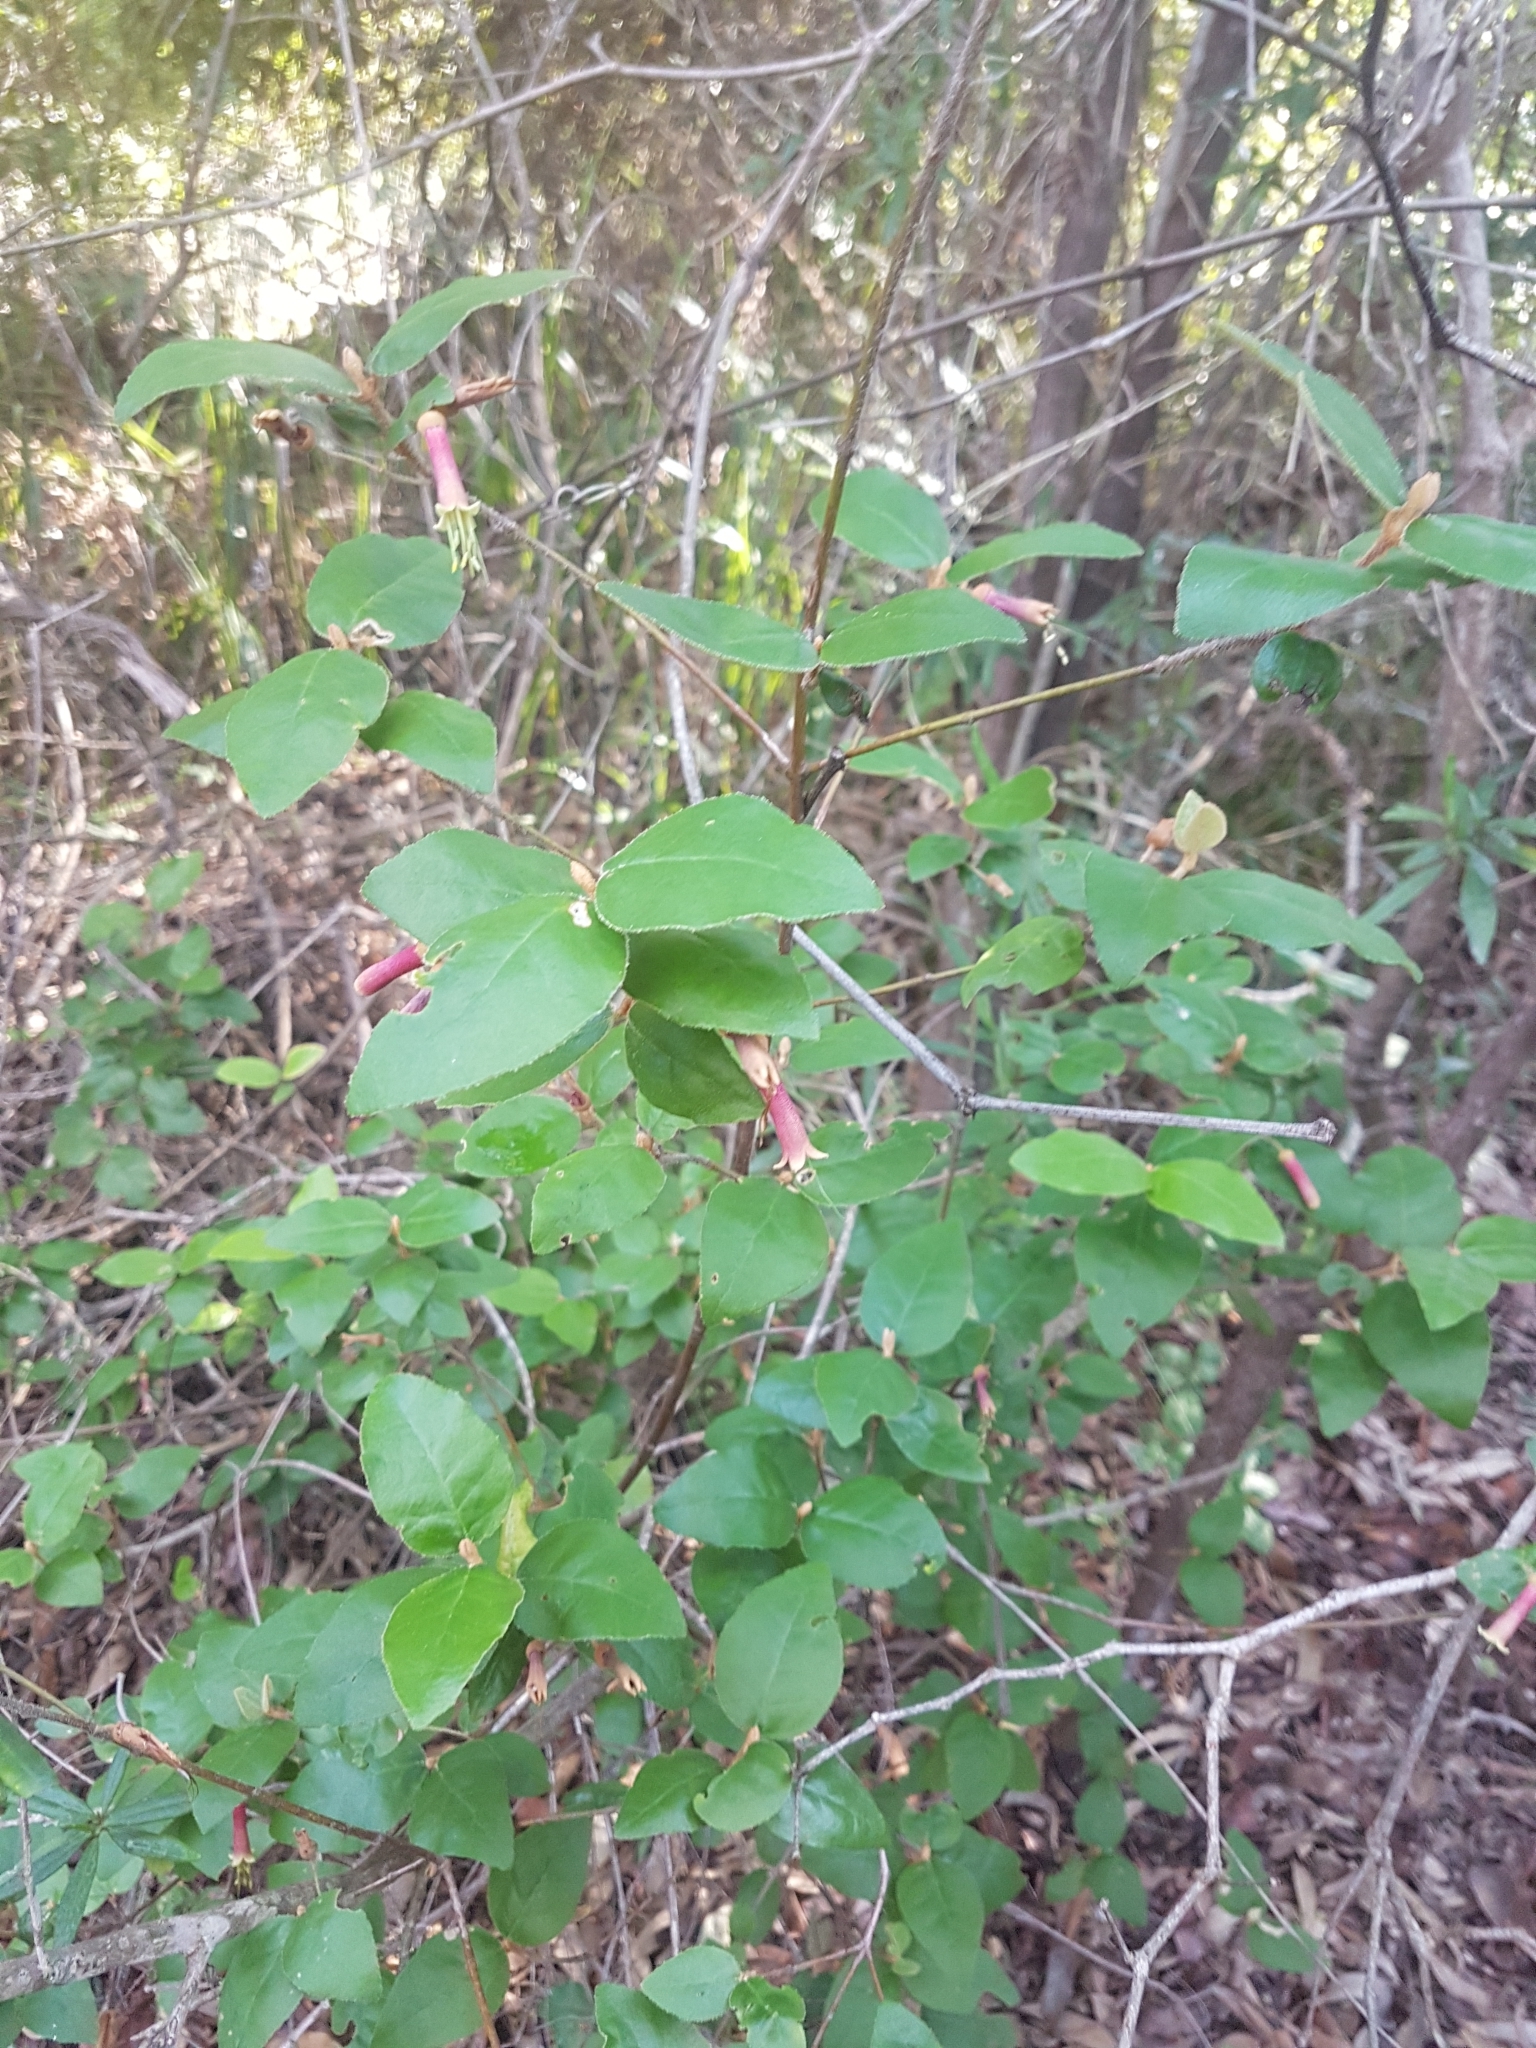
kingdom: Plantae
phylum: Tracheophyta
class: Magnoliopsida
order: Sapindales
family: Rutaceae
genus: Correa
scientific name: Correa lawrenceana
